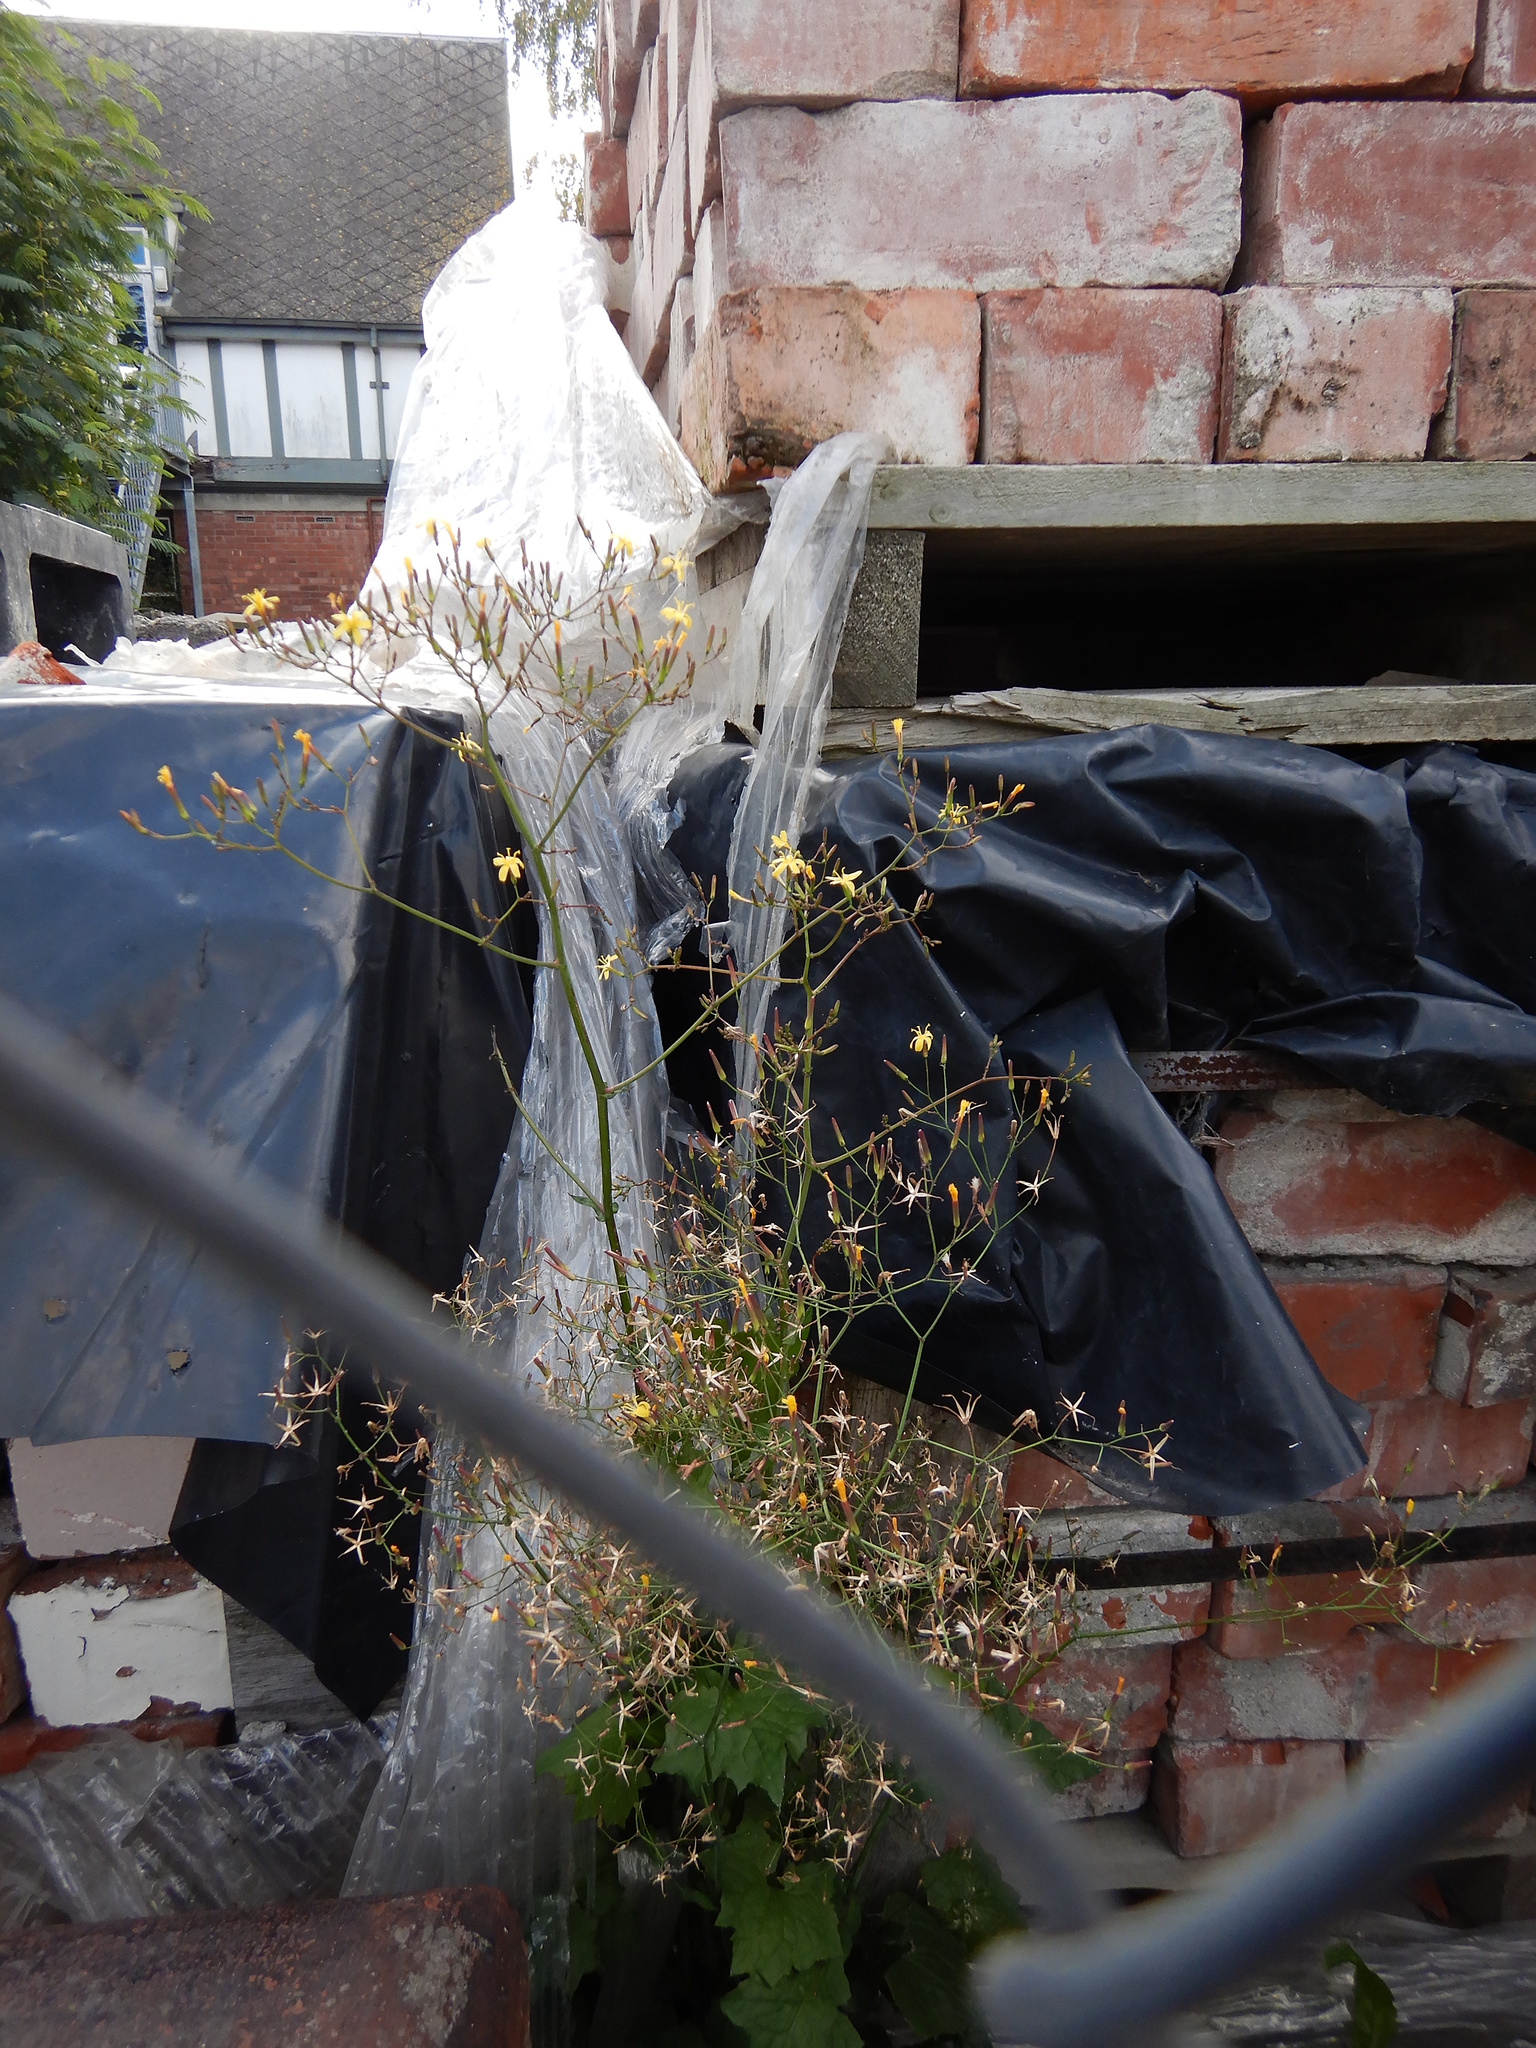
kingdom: Plantae
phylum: Tracheophyta
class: Magnoliopsida
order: Asterales
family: Asteraceae
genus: Mycelis
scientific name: Mycelis muralis
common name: Wall lettuce
